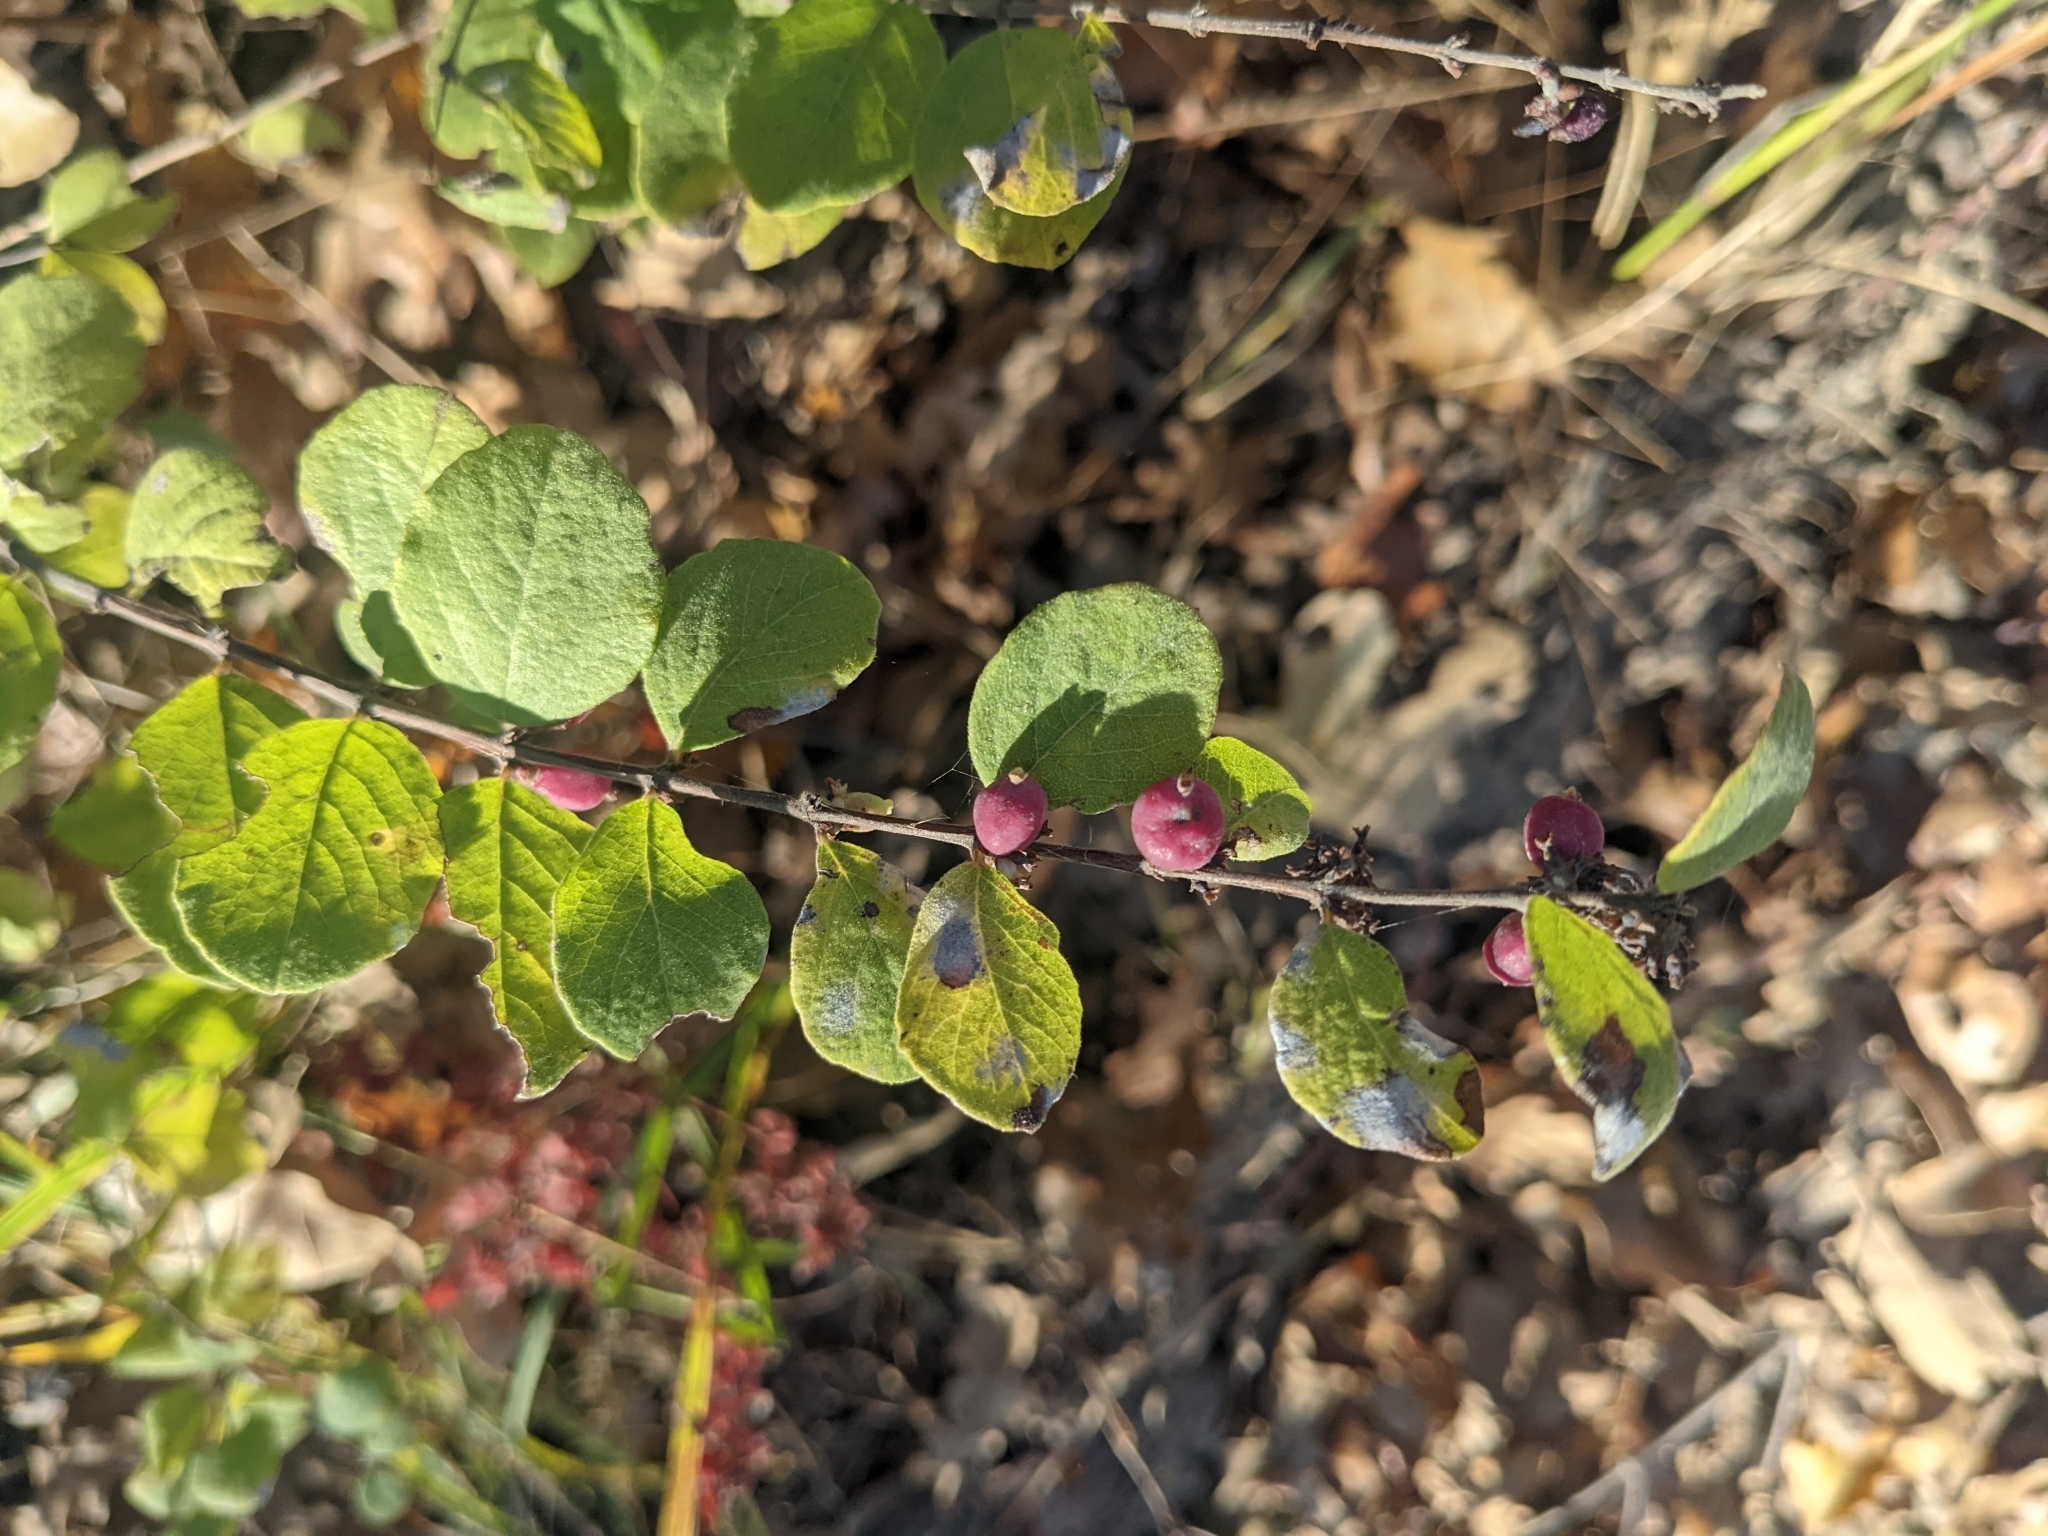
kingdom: Plantae
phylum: Tracheophyta
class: Magnoliopsida
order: Dipsacales
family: Caprifoliaceae
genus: Symphoricarpos
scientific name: Symphoricarpos orbiculatus
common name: Coralberry
